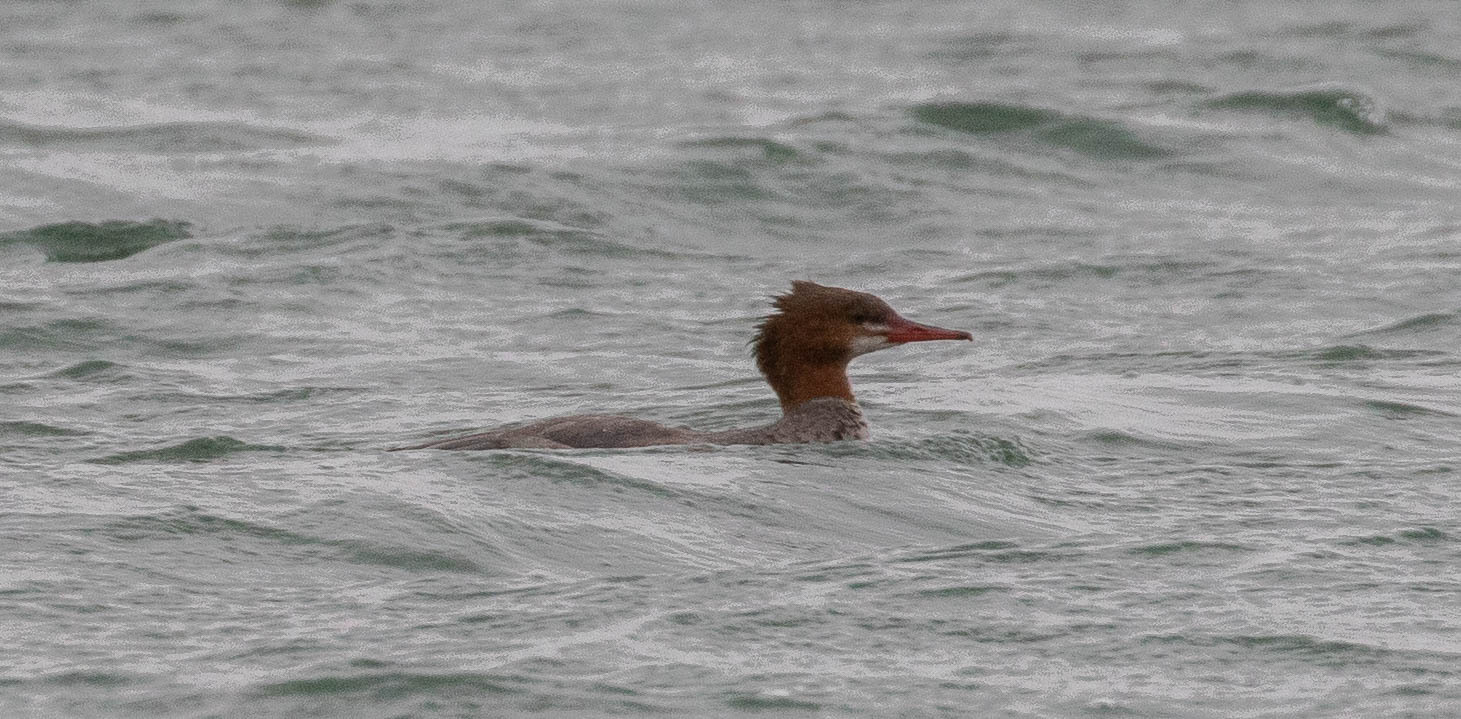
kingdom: Animalia
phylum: Chordata
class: Aves
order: Anseriformes
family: Anatidae
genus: Mergus
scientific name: Mergus merganser
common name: Common merganser
